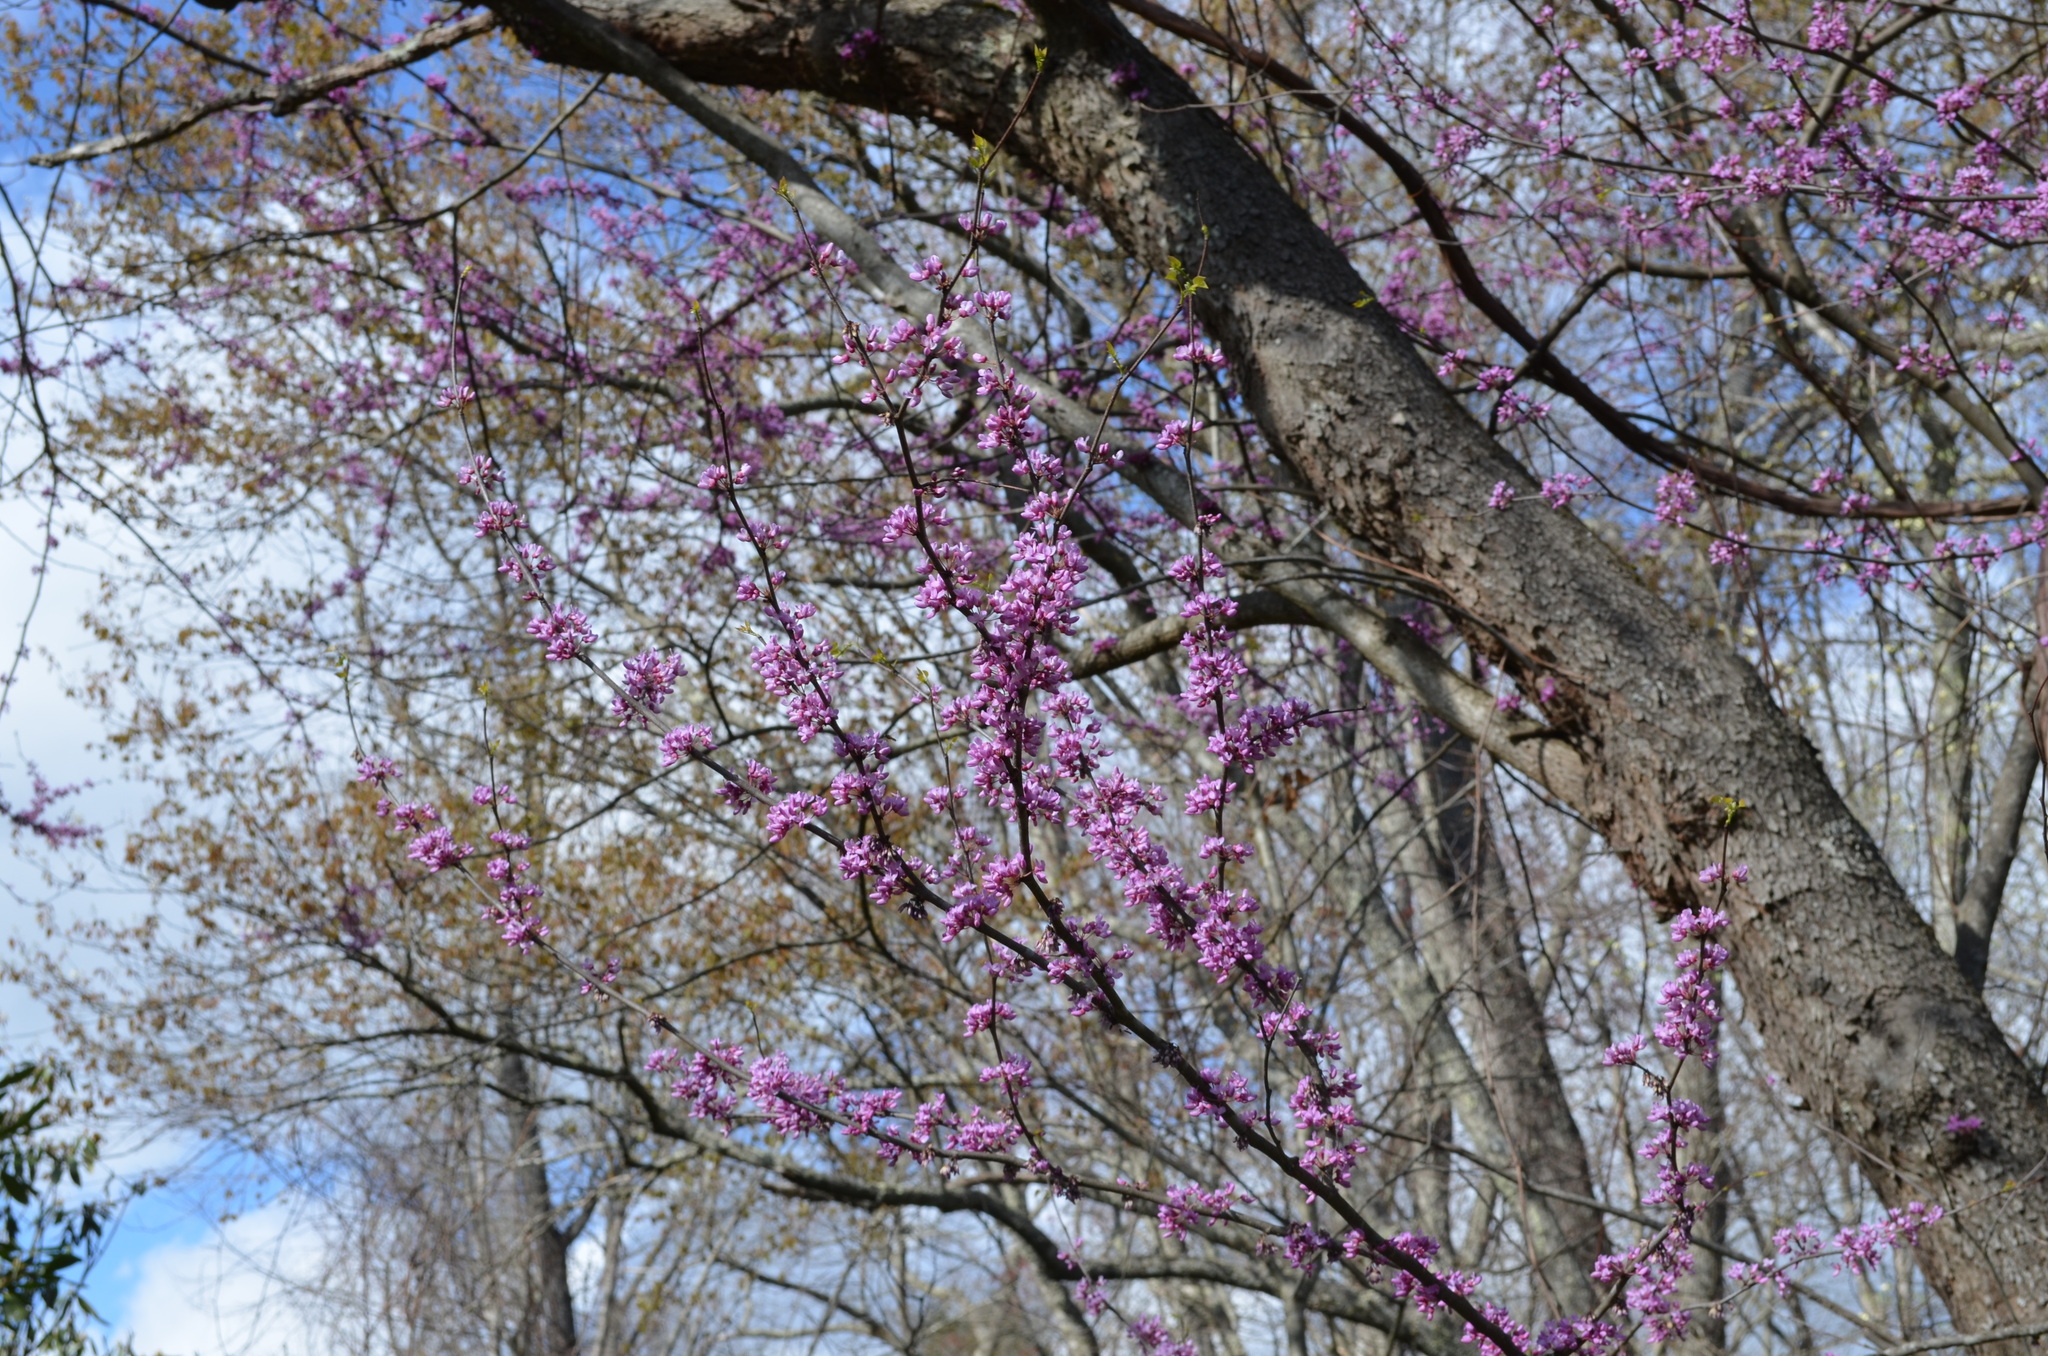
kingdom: Plantae
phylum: Tracheophyta
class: Magnoliopsida
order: Fabales
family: Fabaceae
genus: Cercis
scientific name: Cercis canadensis
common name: Eastern redbud
